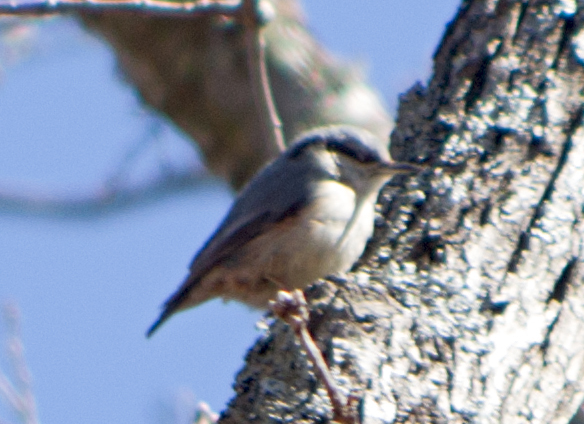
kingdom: Animalia
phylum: Chordata
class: Aves
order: Passeriformes
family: Sittidae
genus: Sitta
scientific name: Sitta europaea
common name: Eurasian nuthatch
